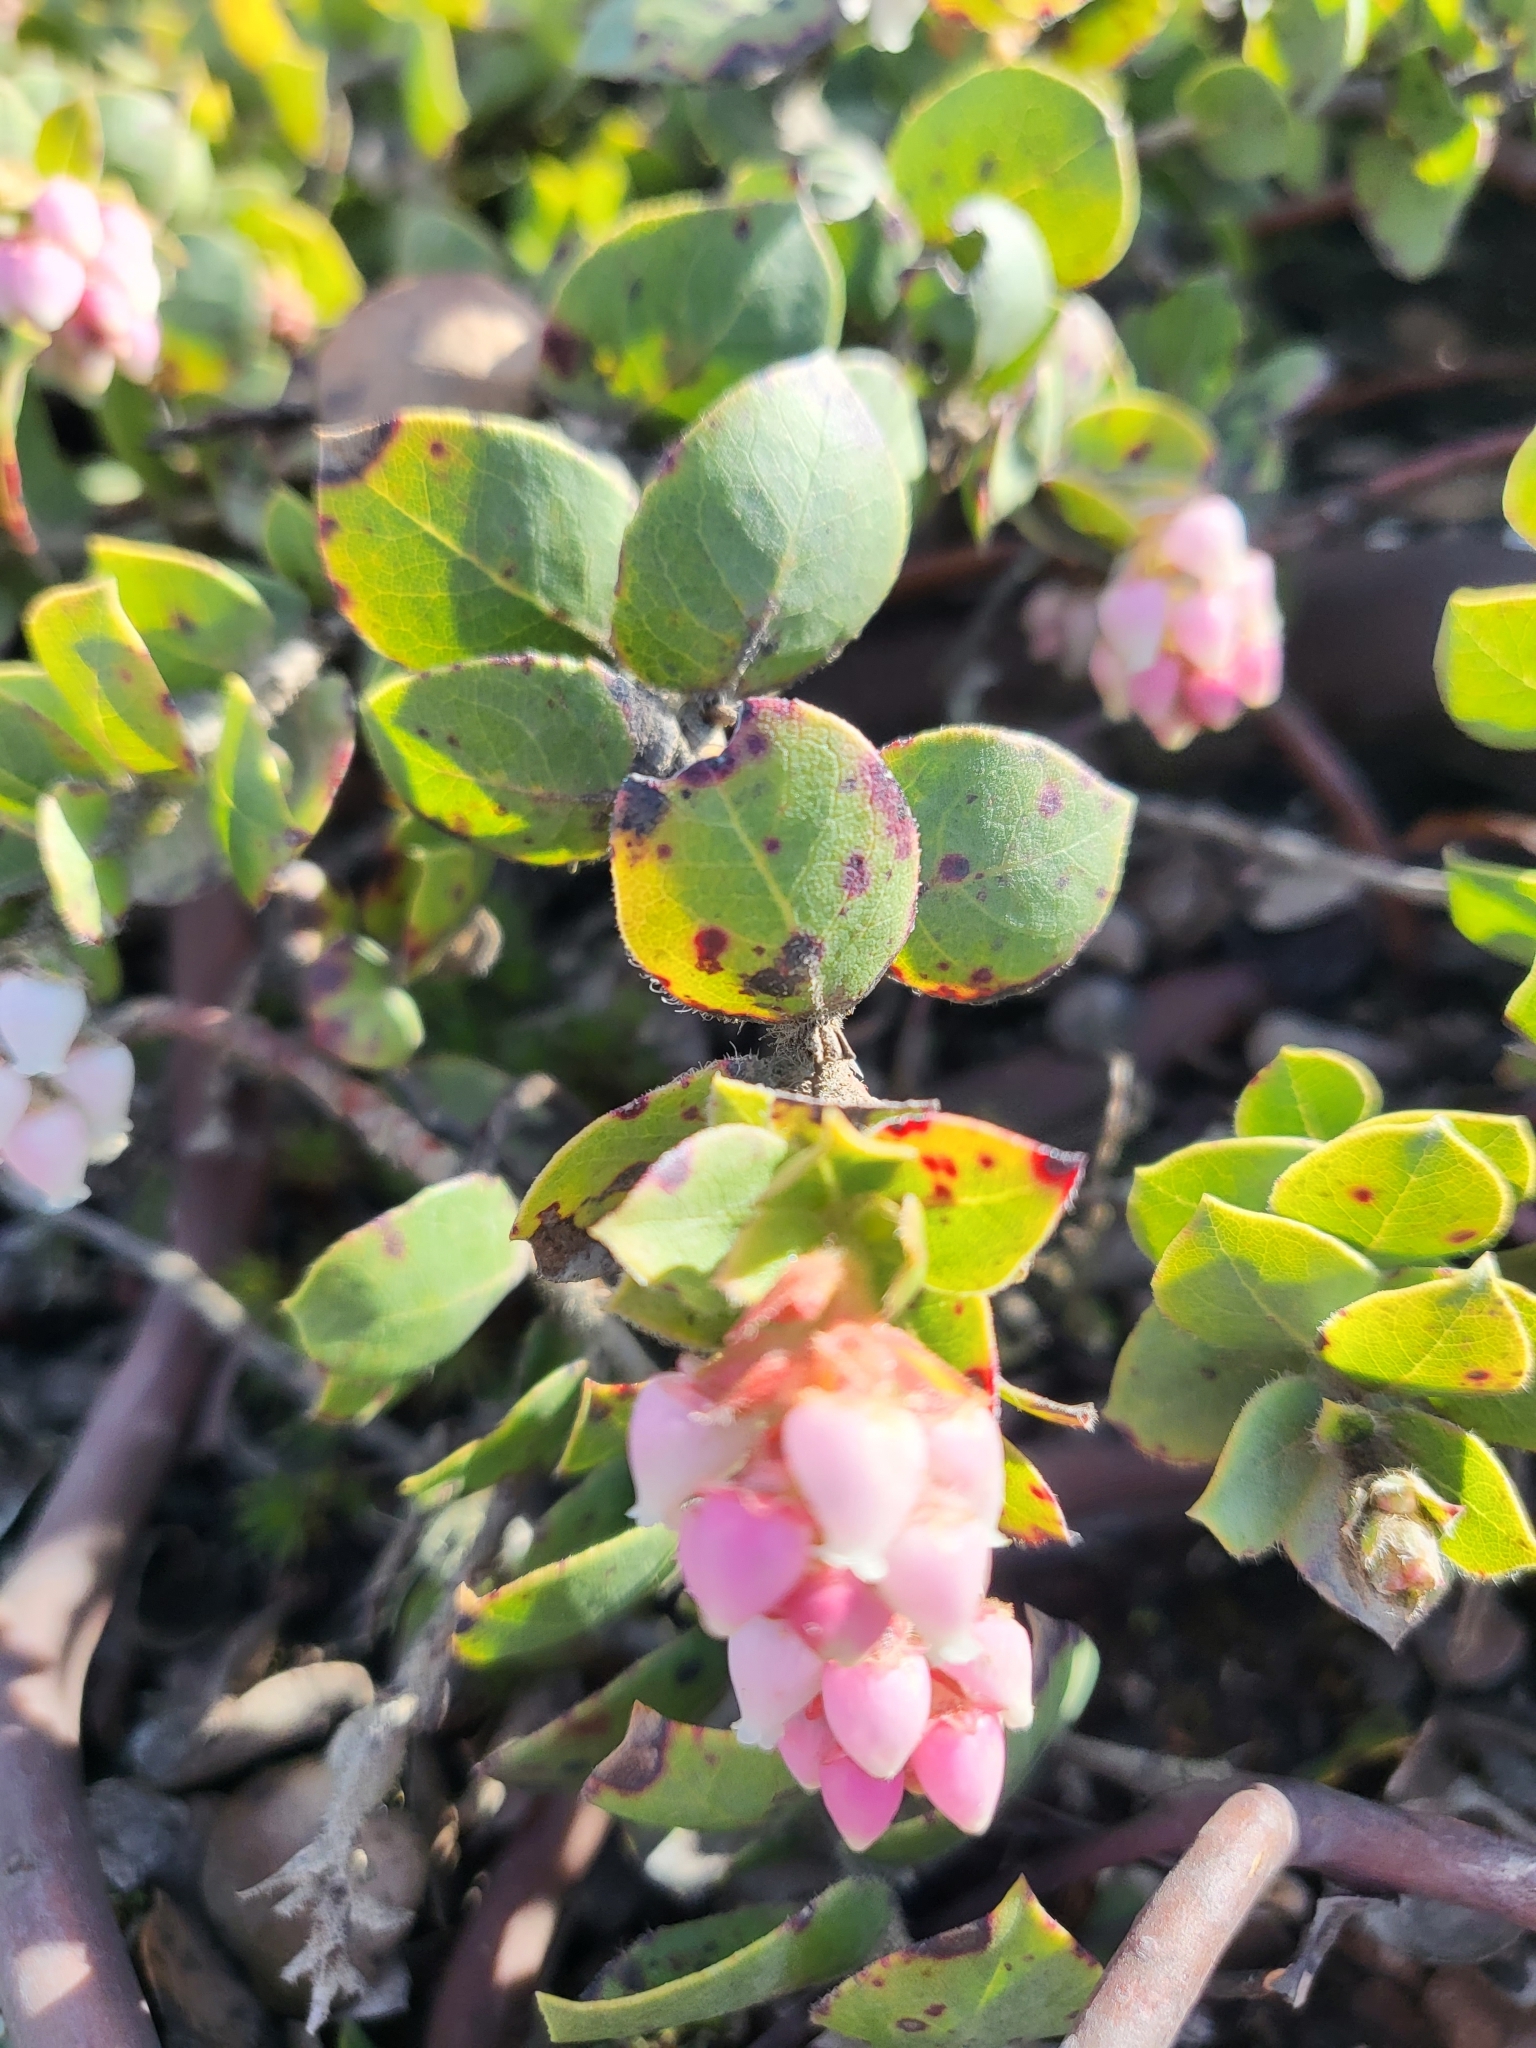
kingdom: Plantae
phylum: Tracheophyta
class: Magnoliopsida
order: Ericales
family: Ericaceae
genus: Arctostaphylos
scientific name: Arctostaphylos imbricata
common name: San bruno mountain manzanita
